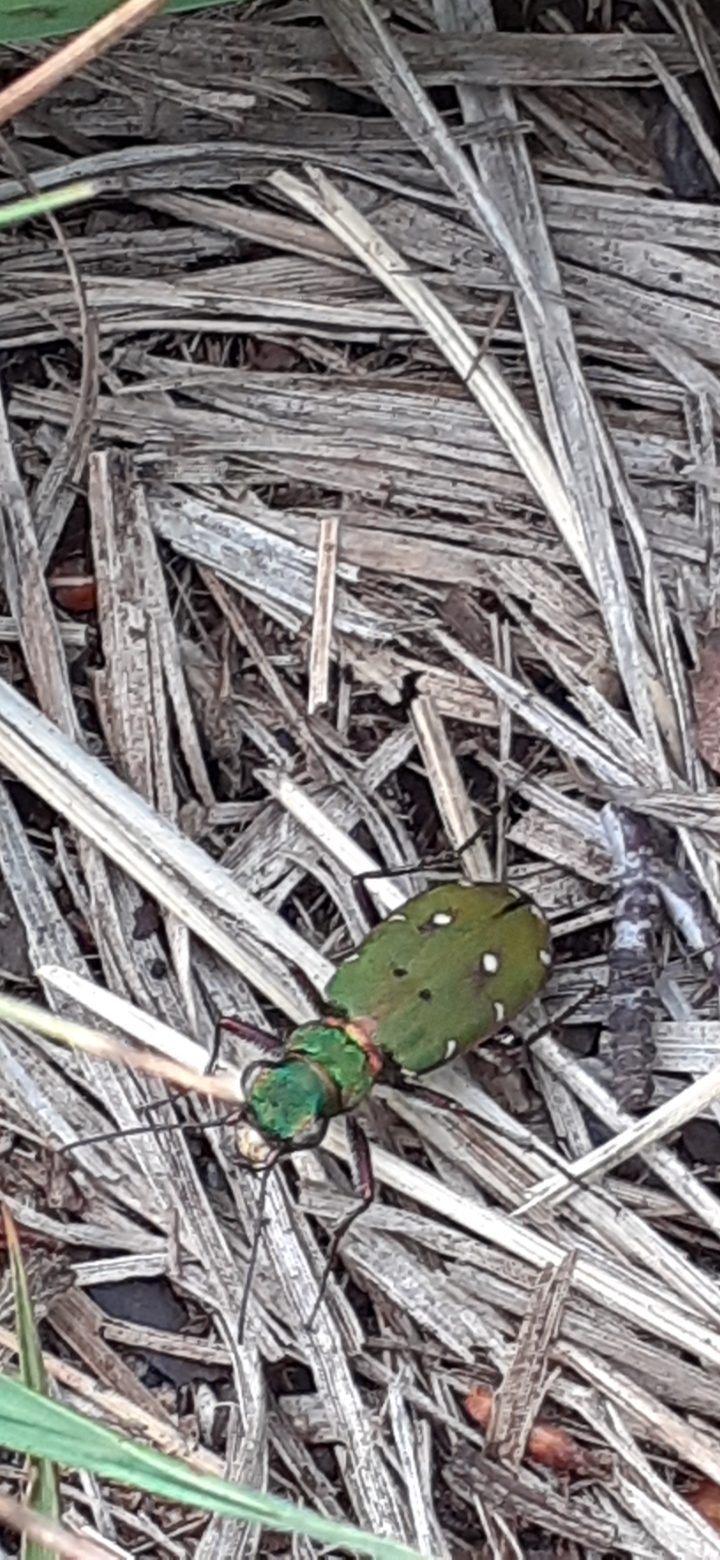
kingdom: Animalia
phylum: Arthropoda
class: Insecta
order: Coleoptera
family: Carabidae
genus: Cicindela
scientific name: Cicindela campestris
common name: Common tiger beetle
